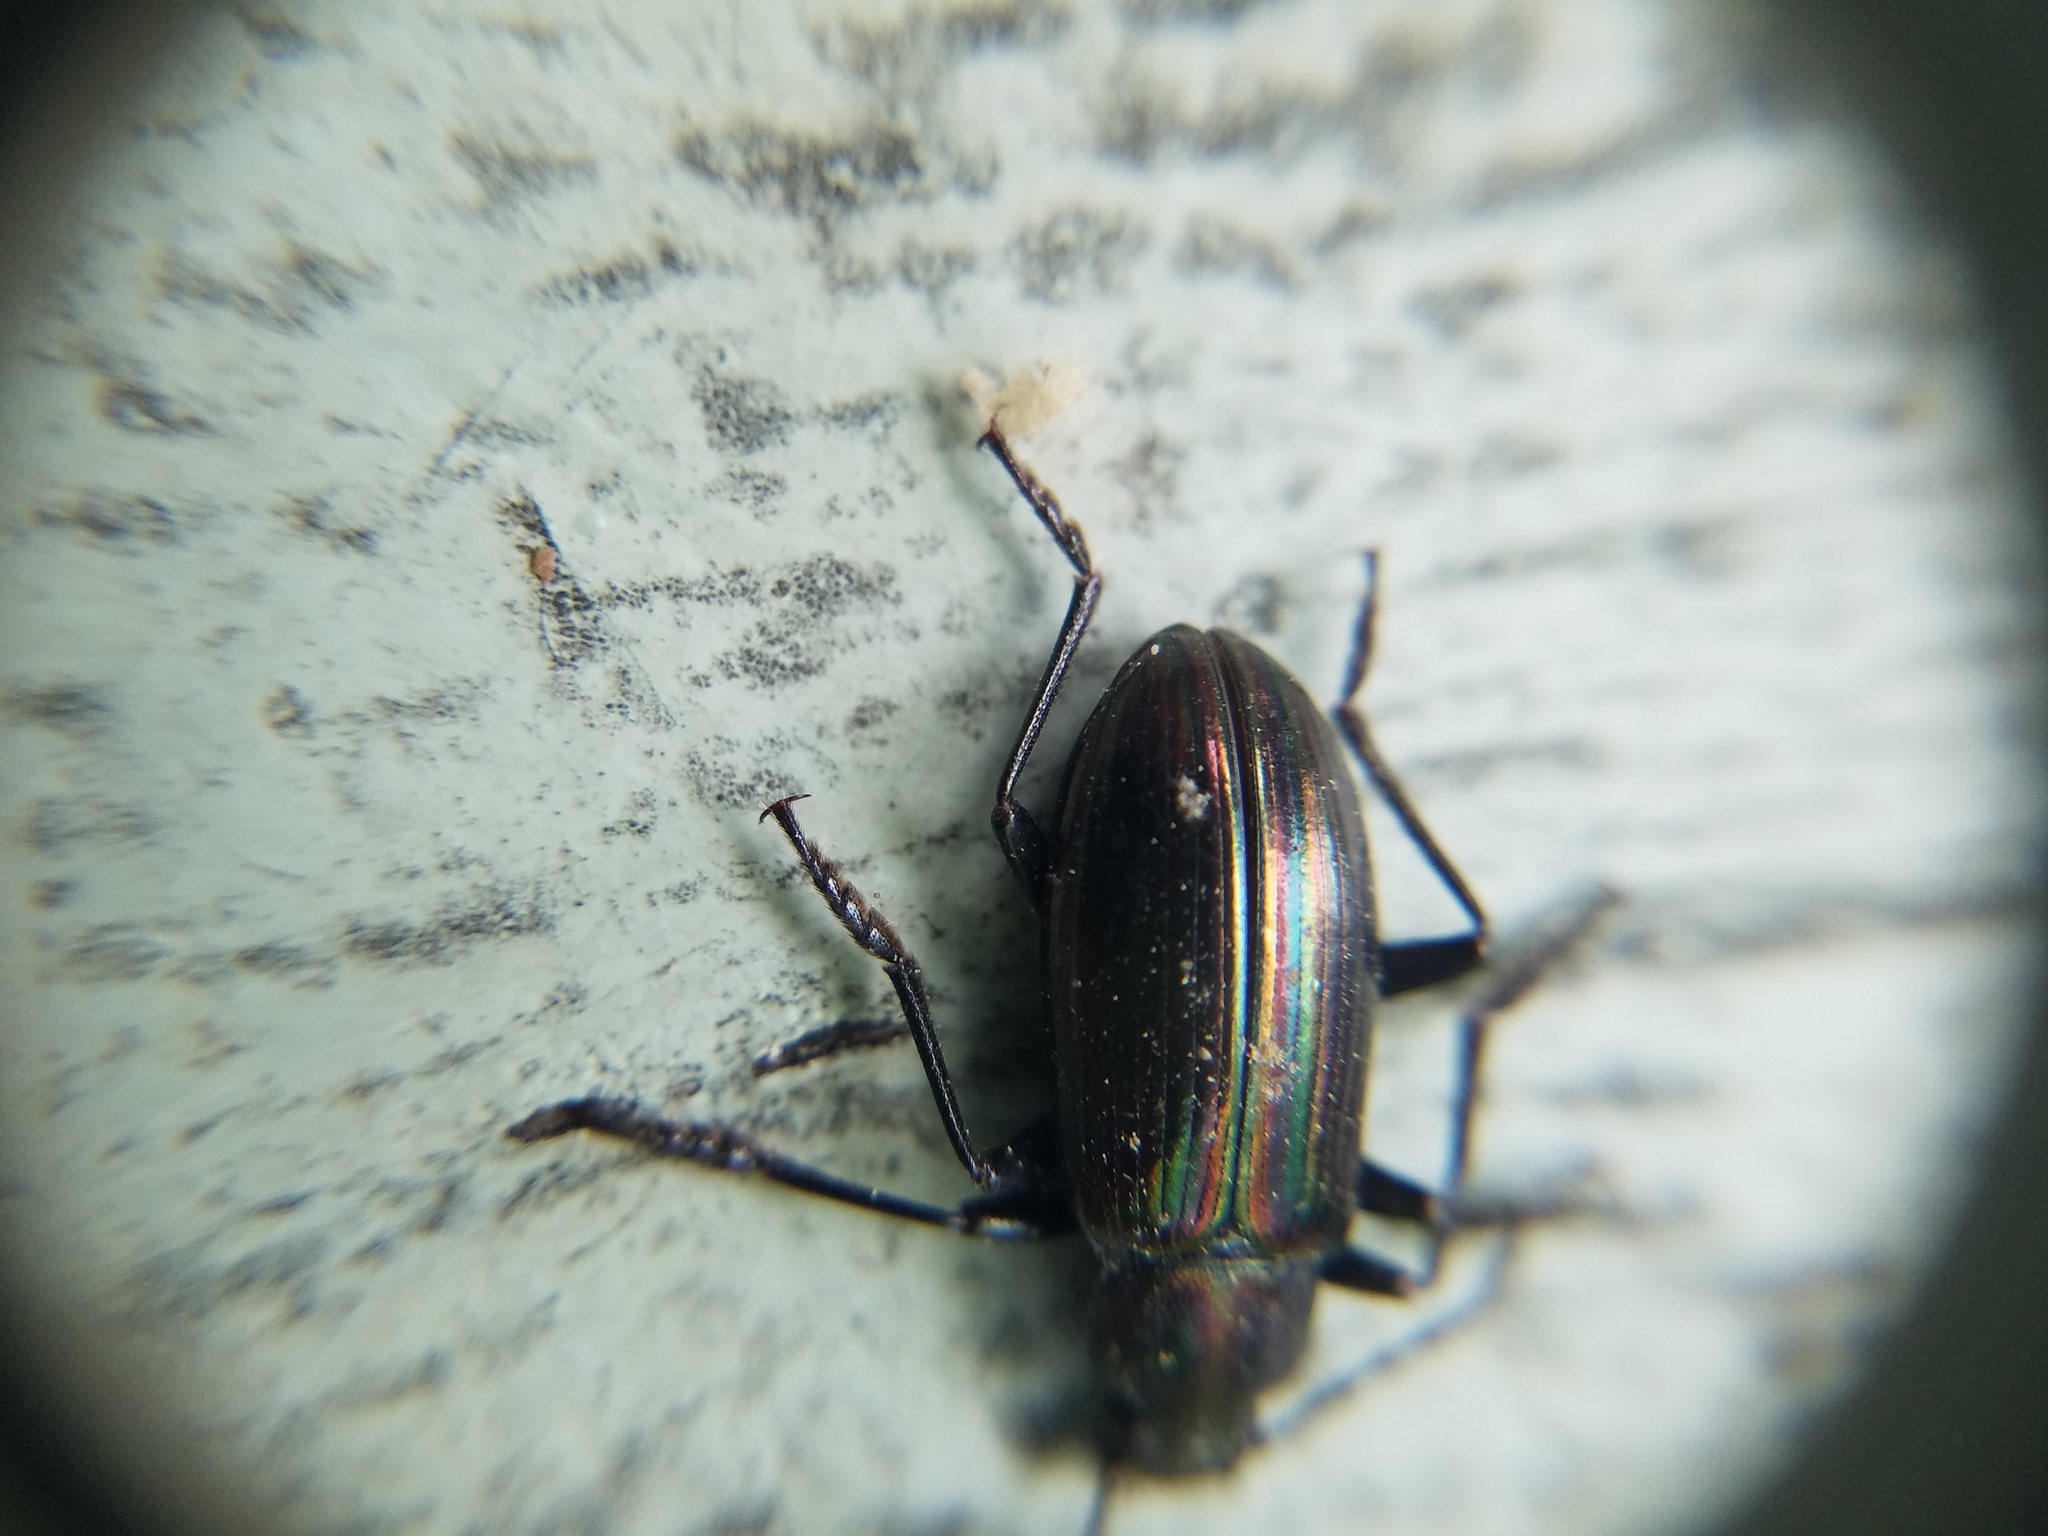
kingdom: Animalia
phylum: Arthropoda
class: Insecta
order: Coleoptera
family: Tenebrionidae
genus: Tarpela
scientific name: Tarpela micans
